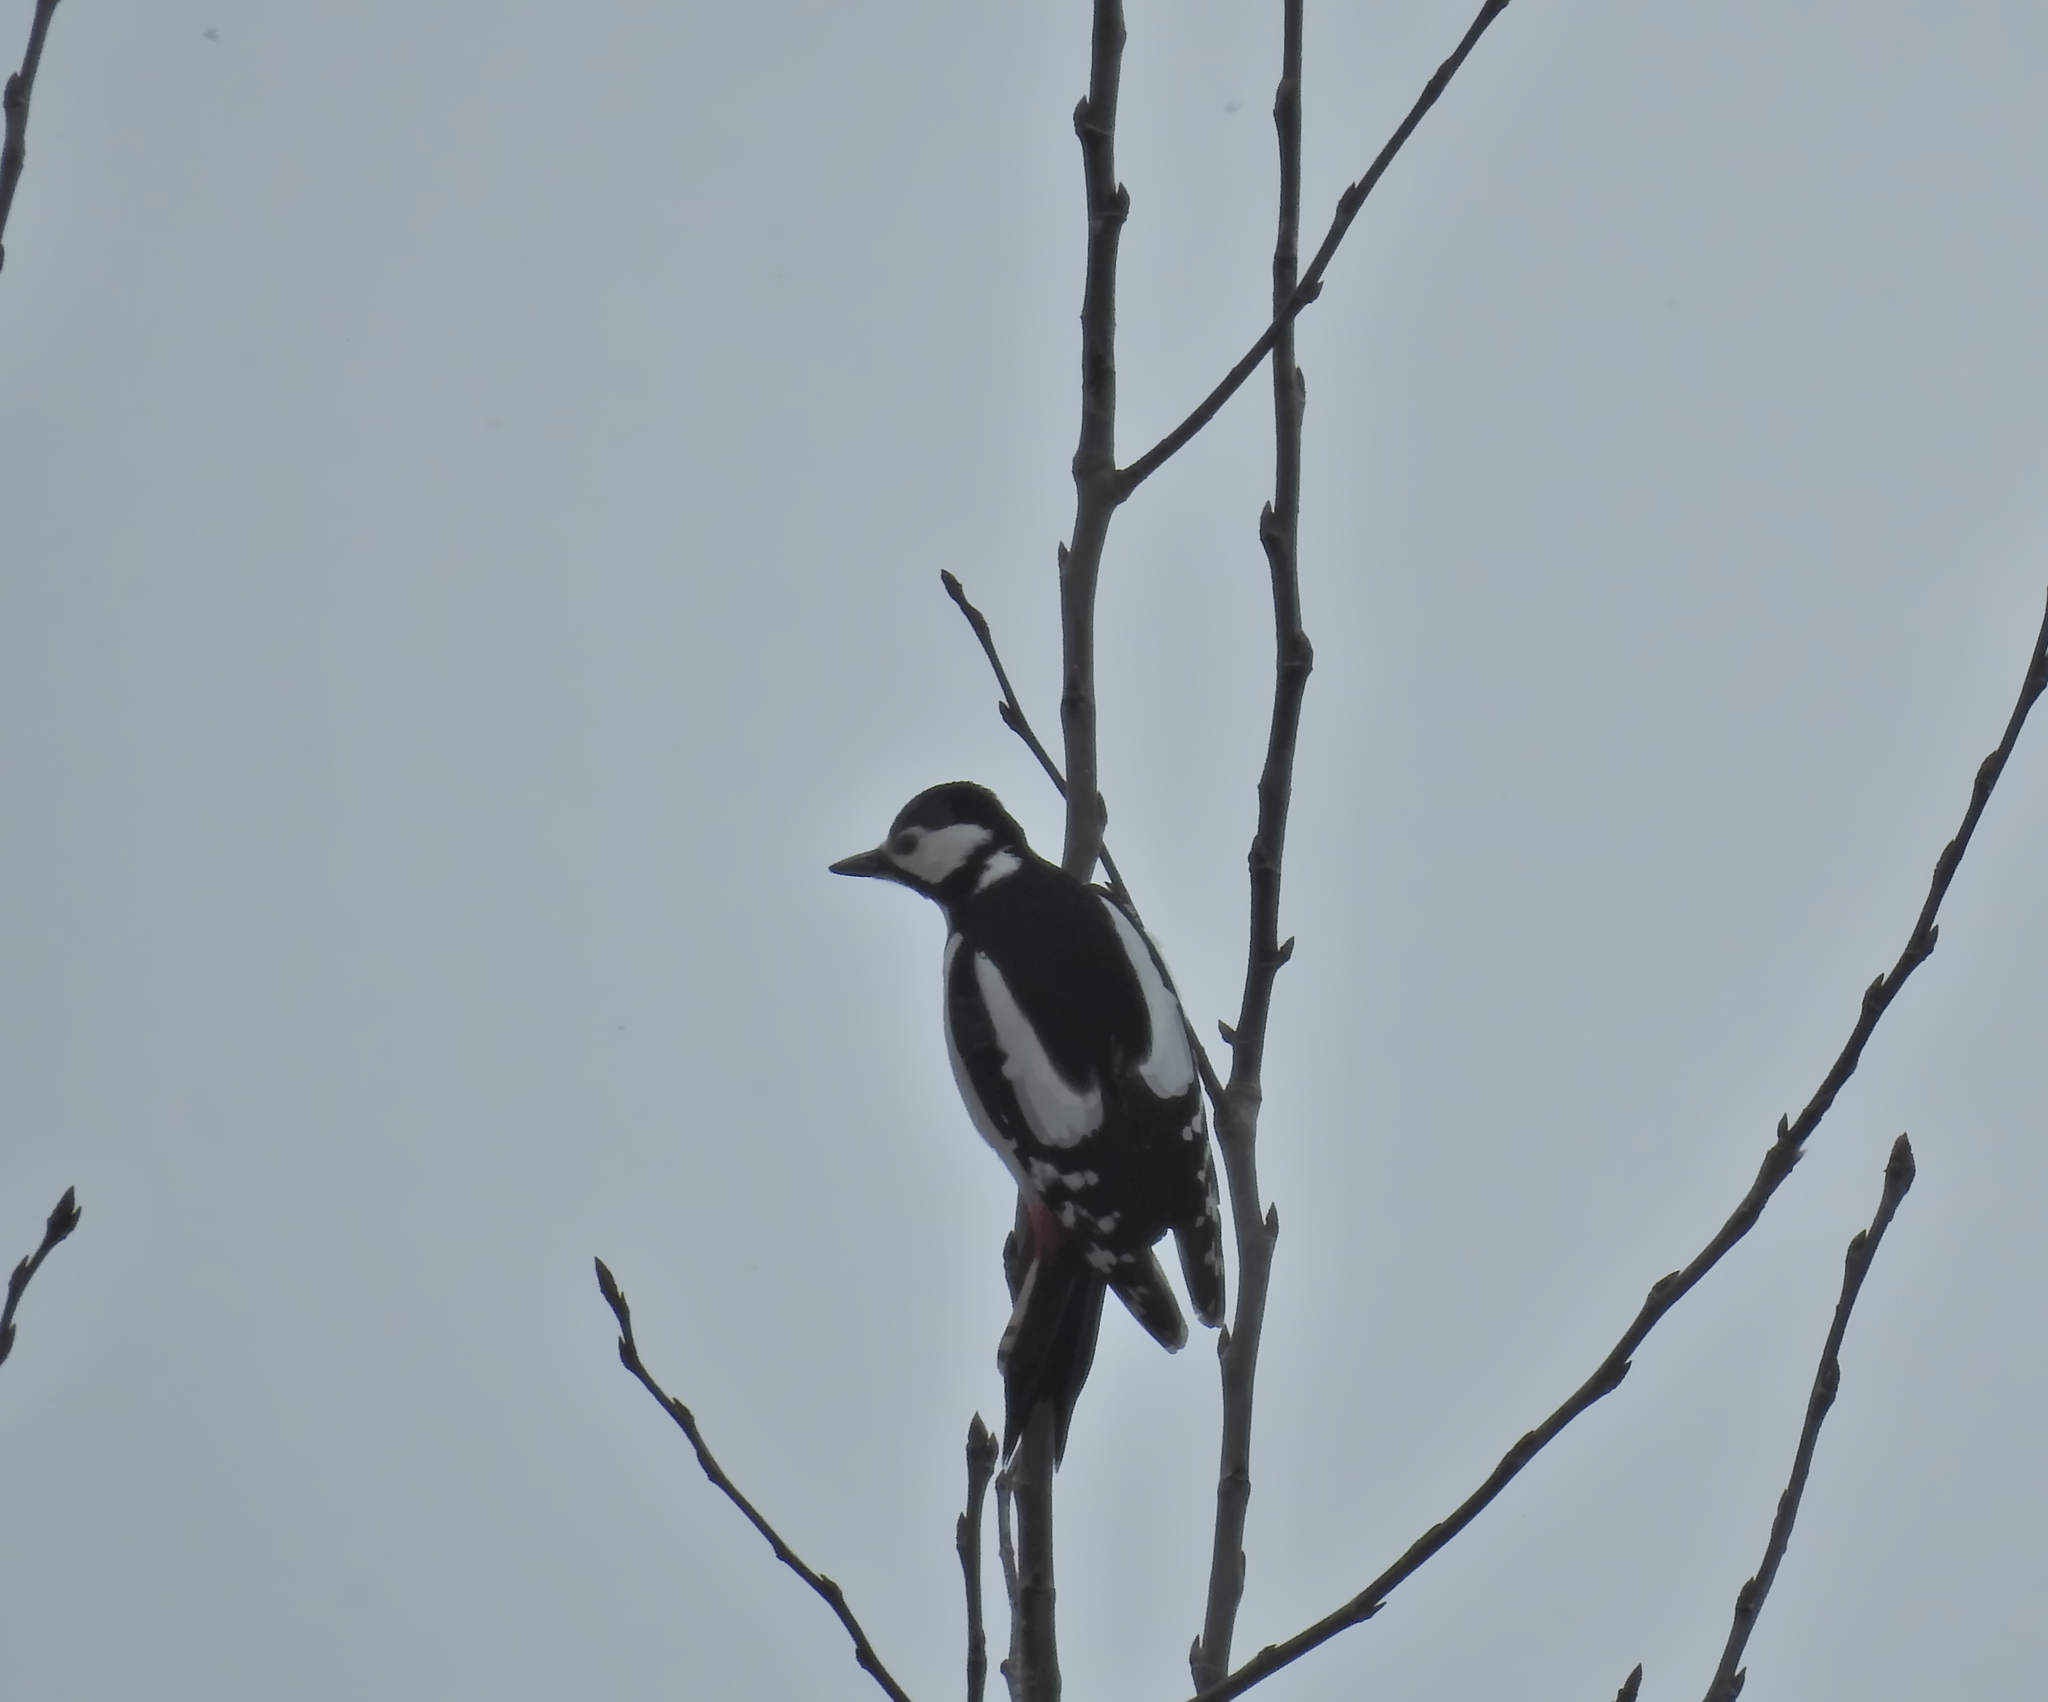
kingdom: Animalia
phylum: Chordata
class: Aves
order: Piciformes
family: Picidae
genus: Dendrocopos
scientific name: Dendrocopos major
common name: Great spotted woodpecker
